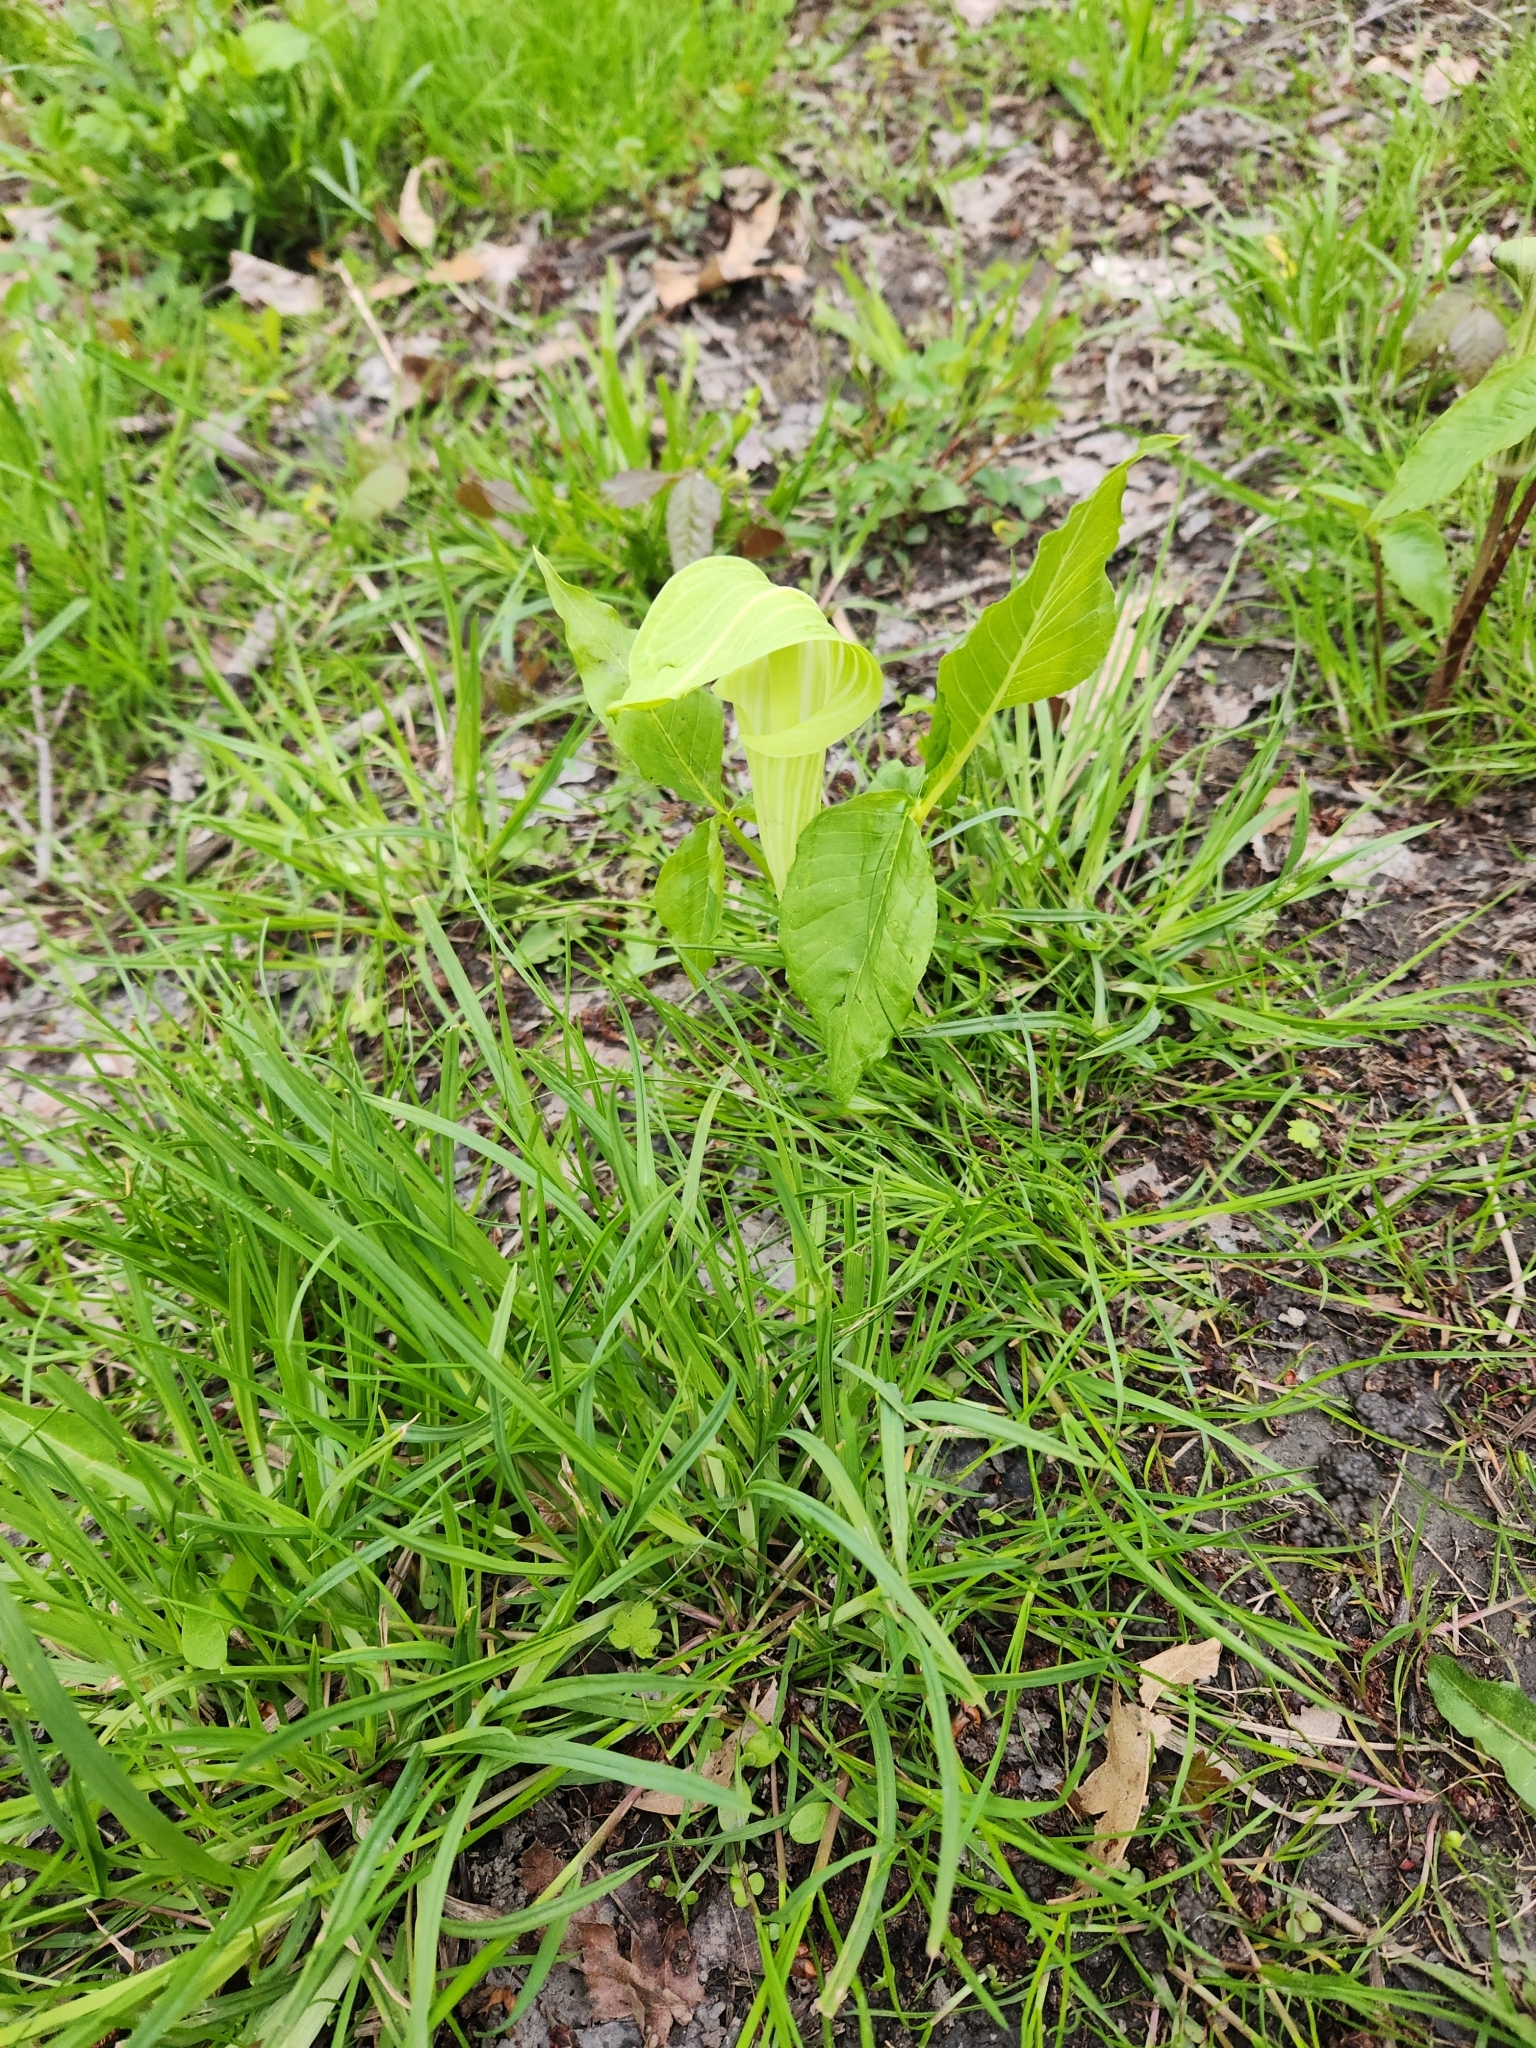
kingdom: Plantae
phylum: Tracheophyta
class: Liliopsida
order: Alismatales
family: Araceae
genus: Arisaema
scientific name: Arisaema triphyllum
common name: Jack-in-the-pulpit
